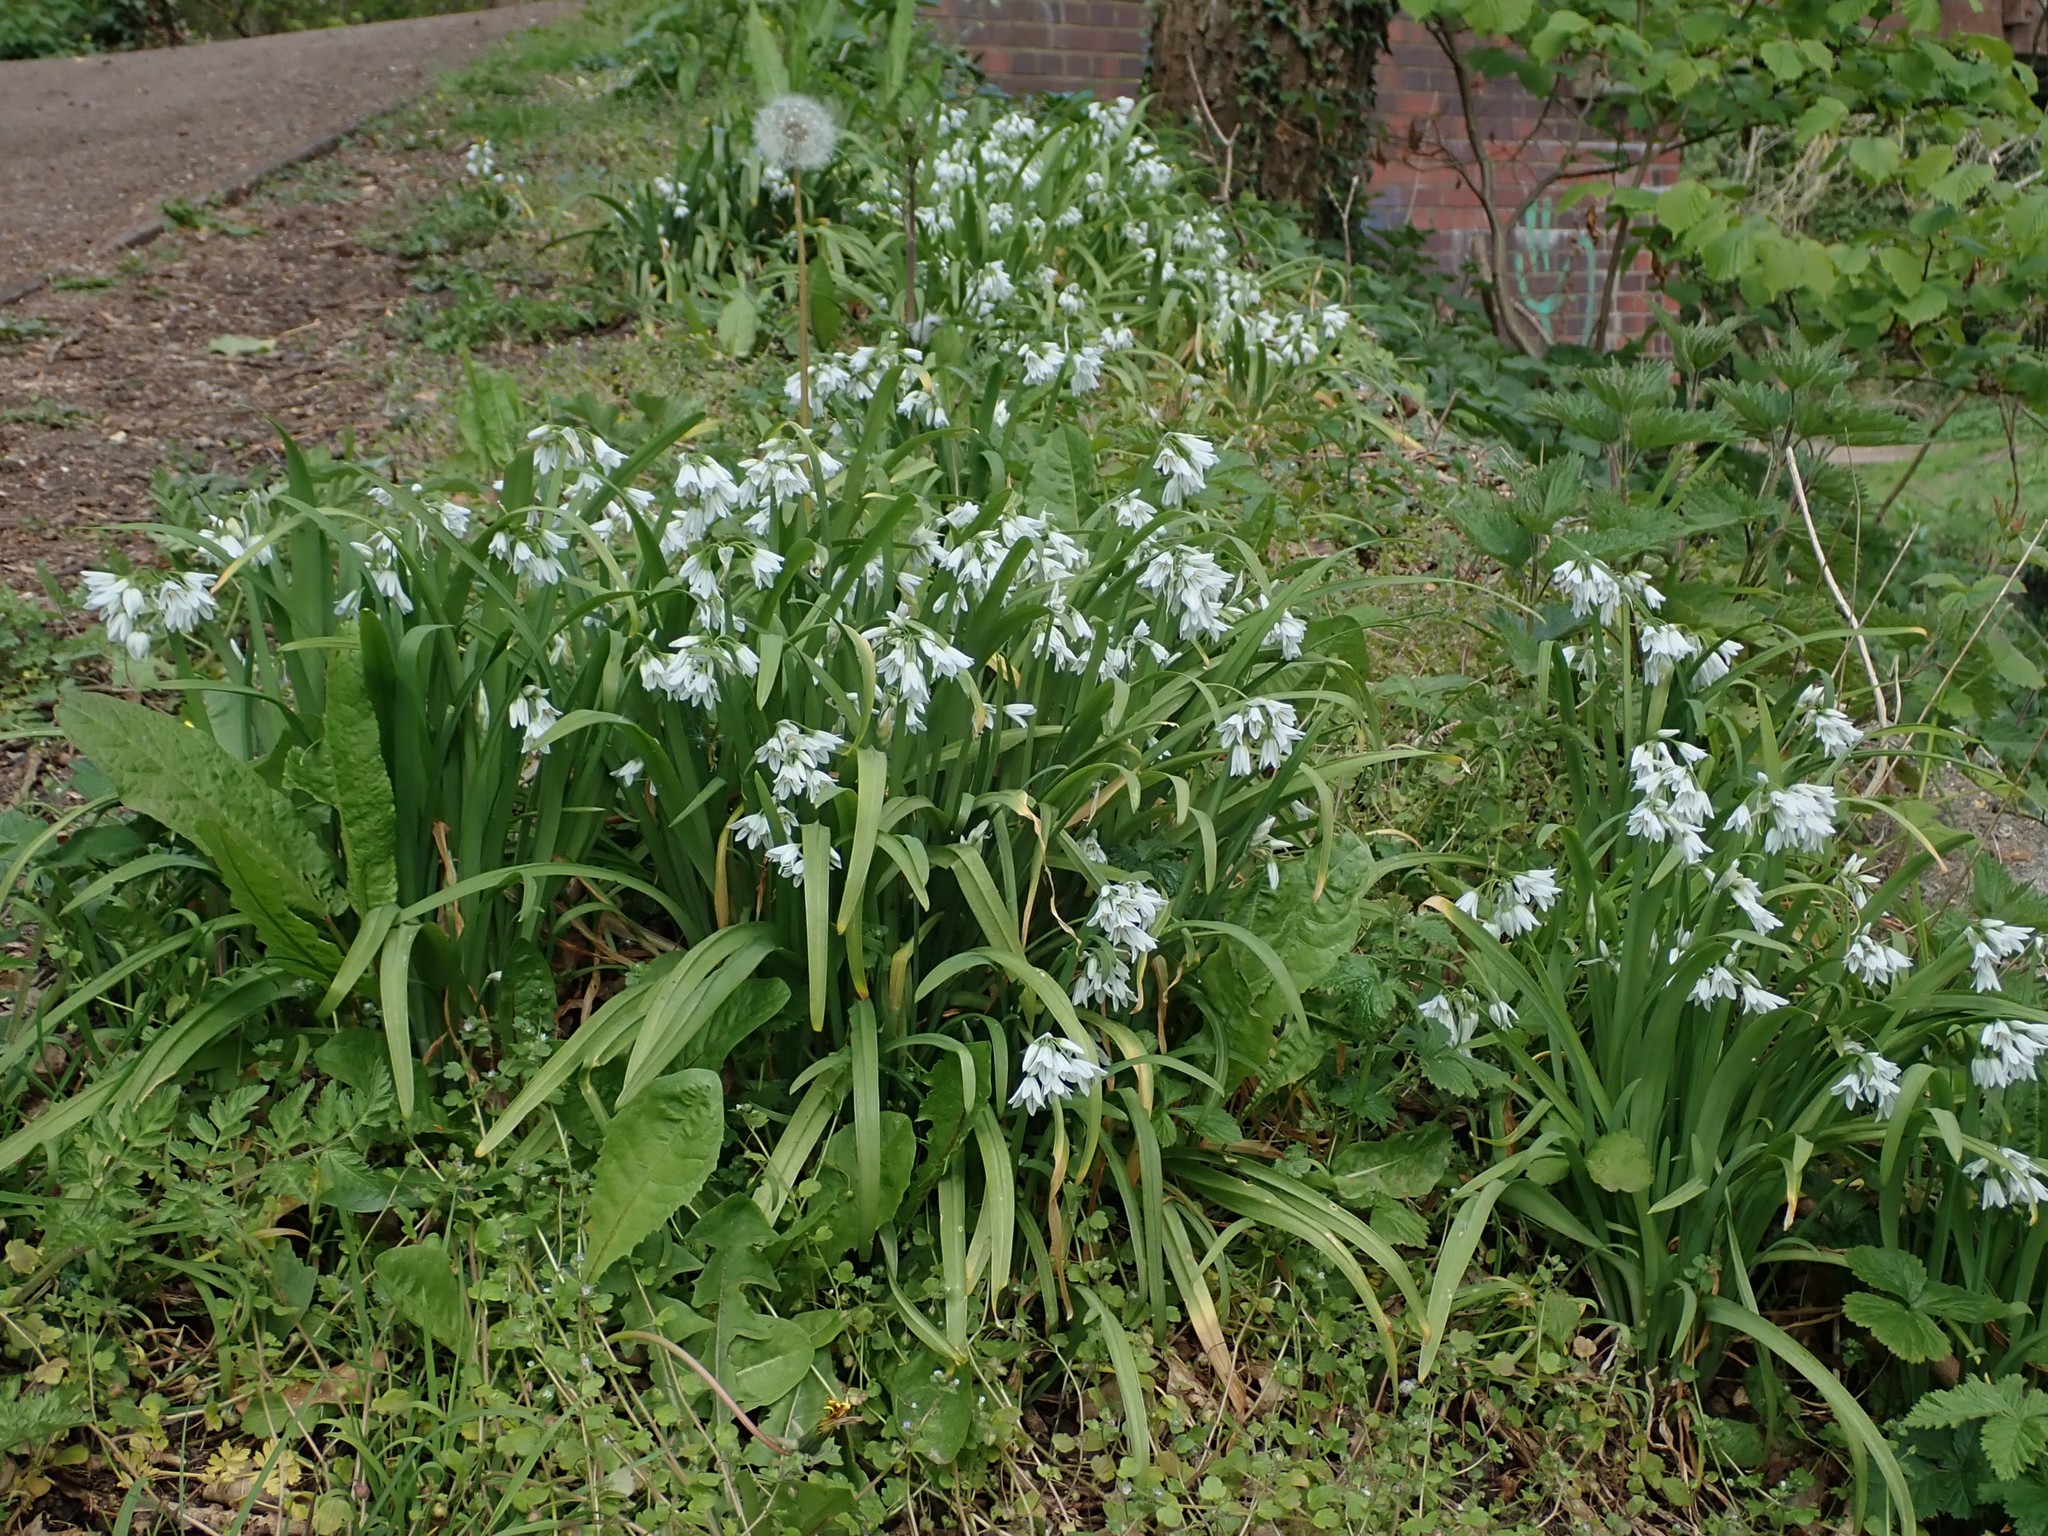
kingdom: Plantae
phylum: Tracheophyta
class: Liliopsida
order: Asparagales
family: Amaryllidaceae
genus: Allium
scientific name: Allium triquetrum
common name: Three-cornered garlic
